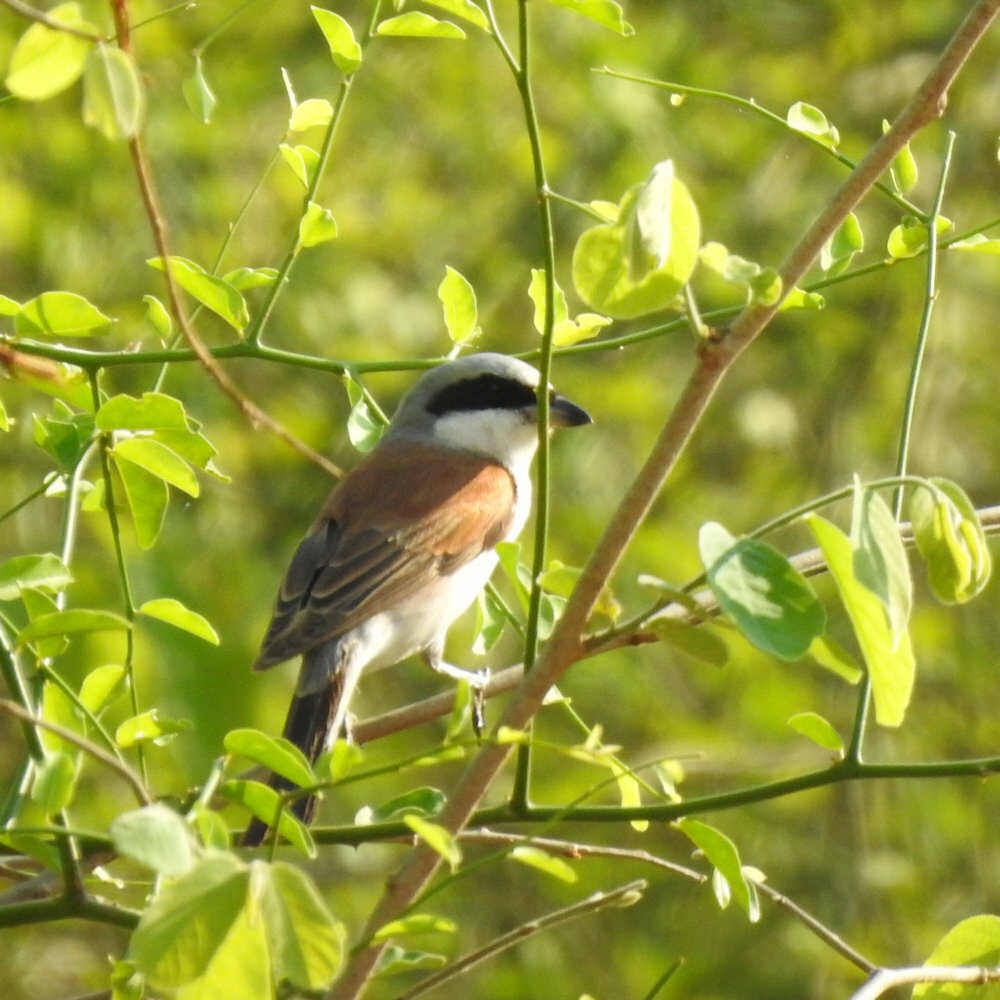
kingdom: Animalia
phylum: Chordata
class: Aves
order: Passeriformes
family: Laniidae
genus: Lanius
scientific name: Lanius collurio
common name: Red-backed shrike
